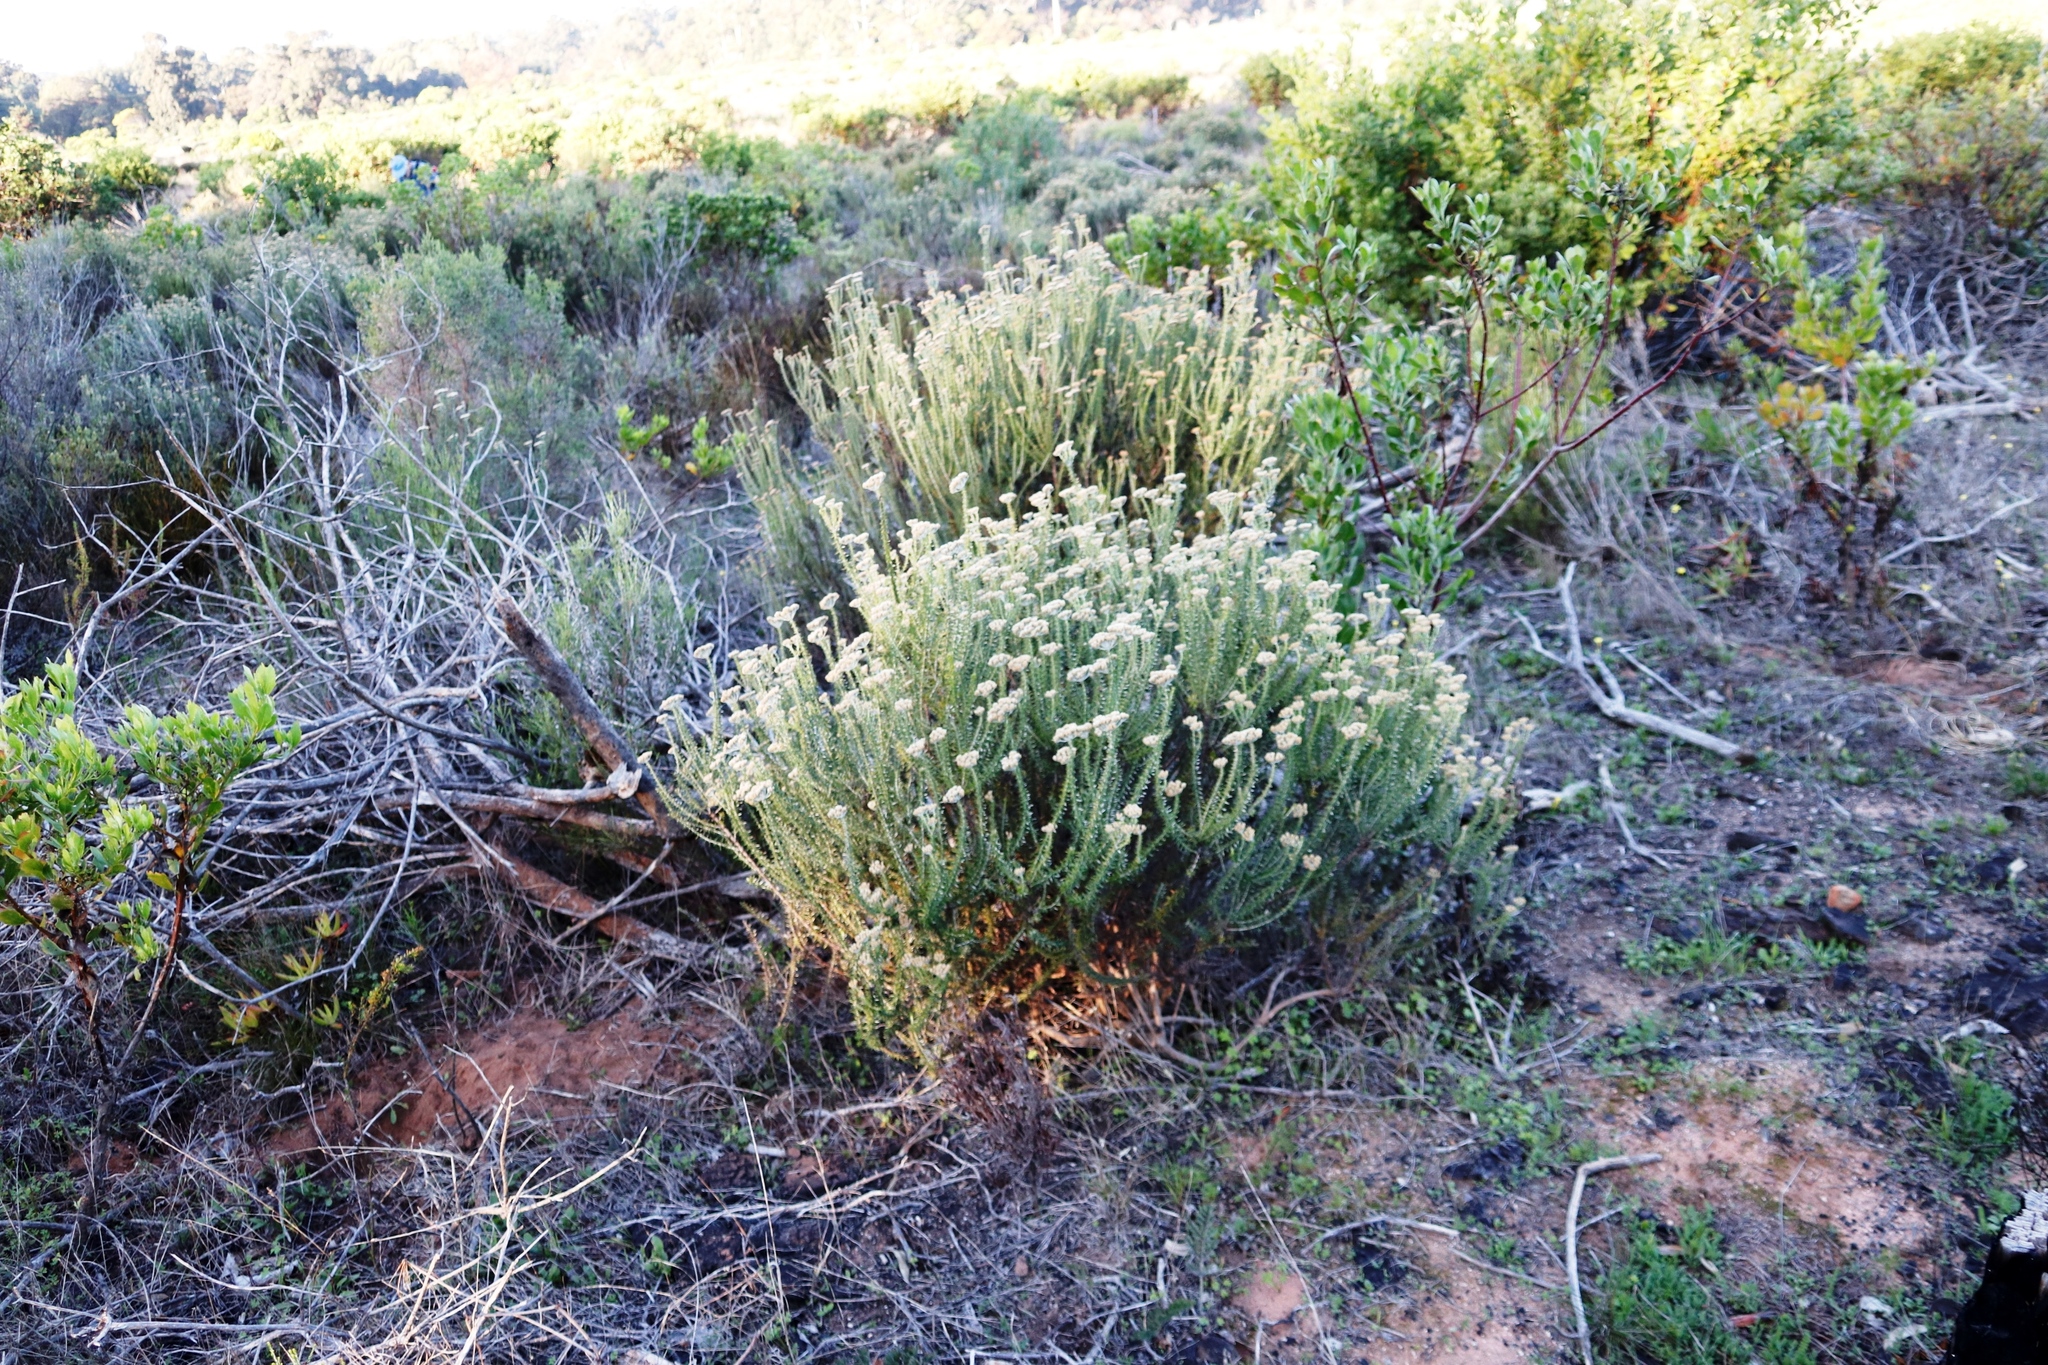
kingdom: Plantae
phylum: Tracheophyta
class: Magnoliopsida
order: Asterales
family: Asteraceae
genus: Metalasia
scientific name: Metalasia densa
